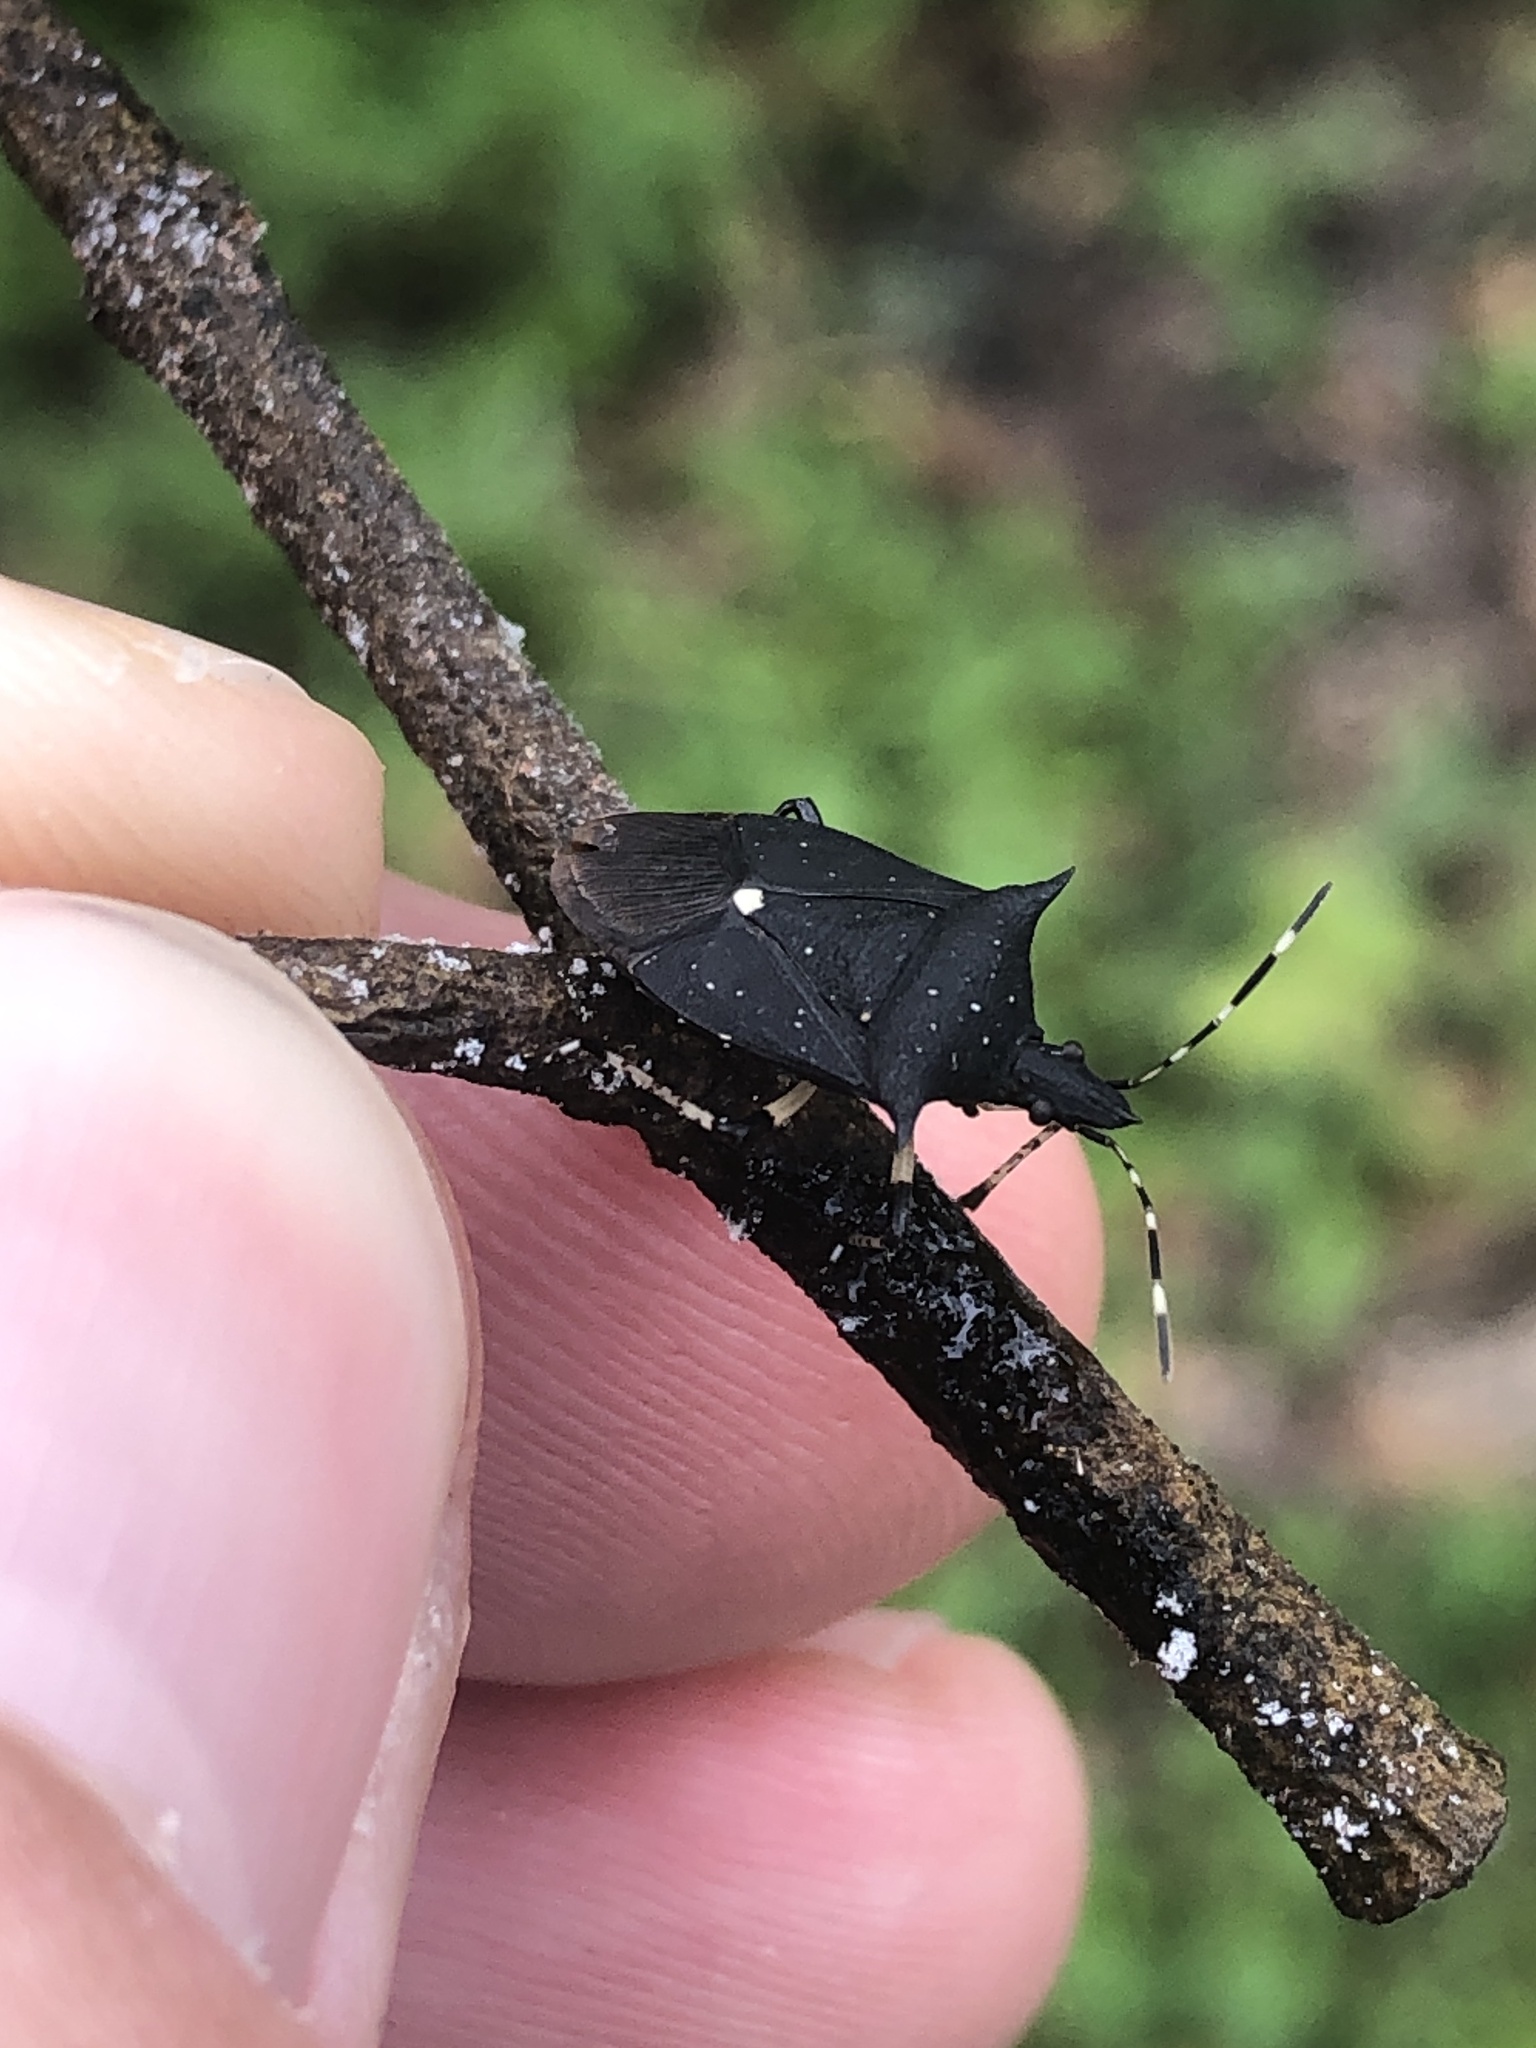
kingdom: Animalia
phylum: Arthropoda
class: Insecta
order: Hemiptera
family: Pentatomidae
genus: Proxys
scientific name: Proxys punctulatus
